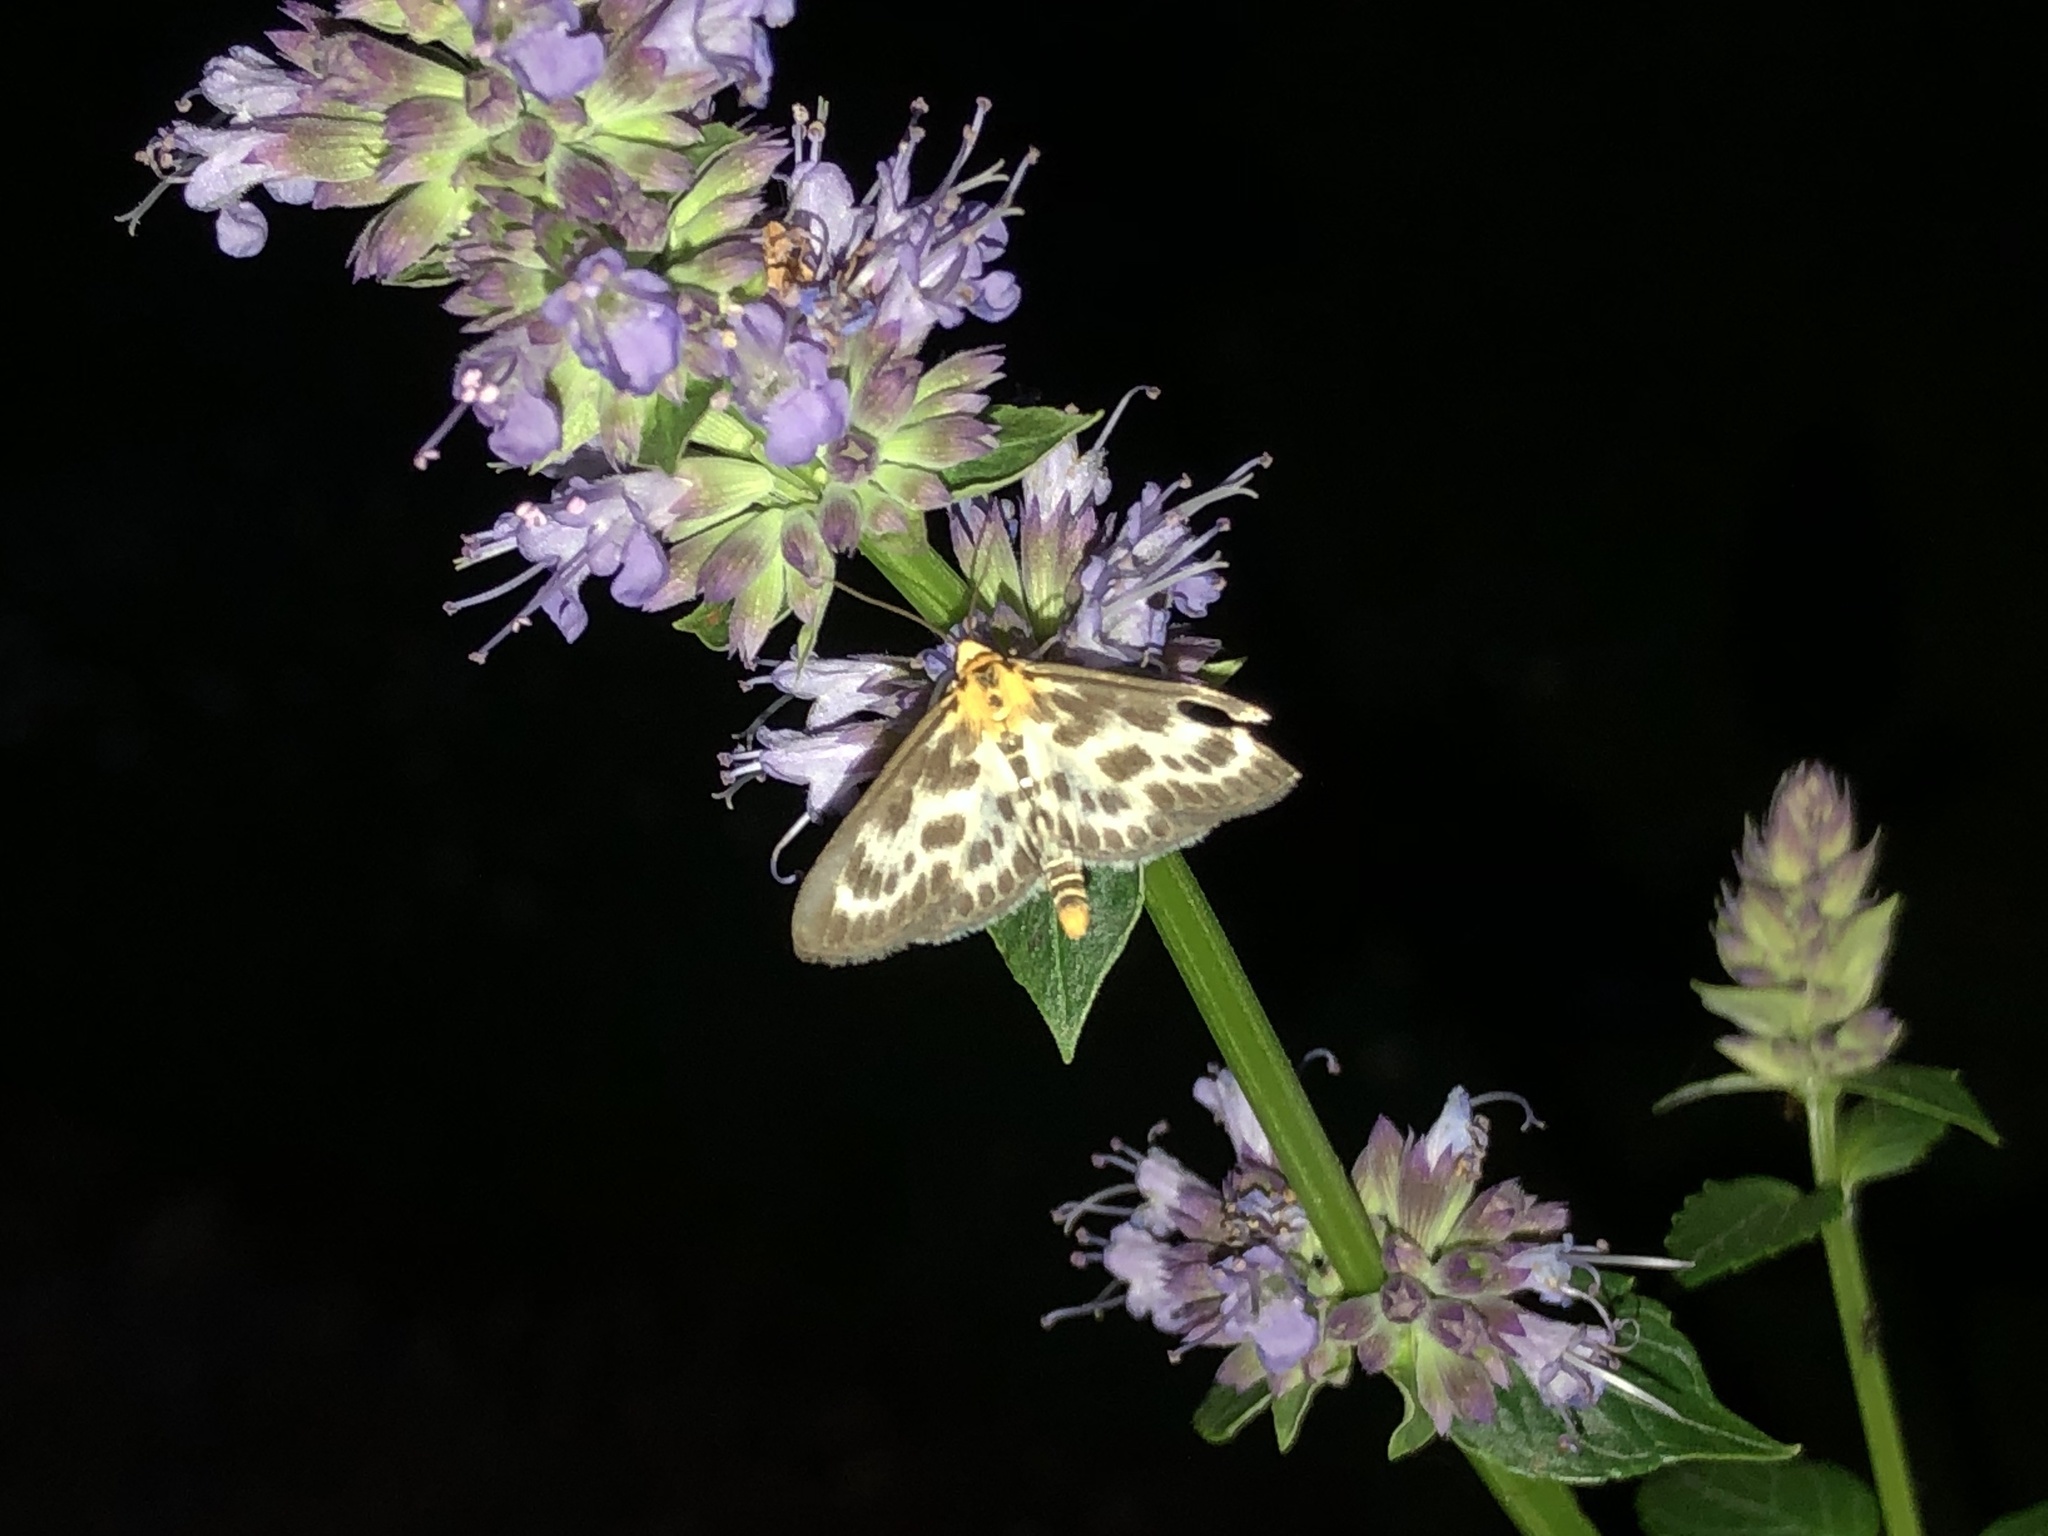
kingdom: Animalia
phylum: Arthropoda
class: Insecta
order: Lepidoptera
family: Crambidae
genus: Anania
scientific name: Anania hortulata
